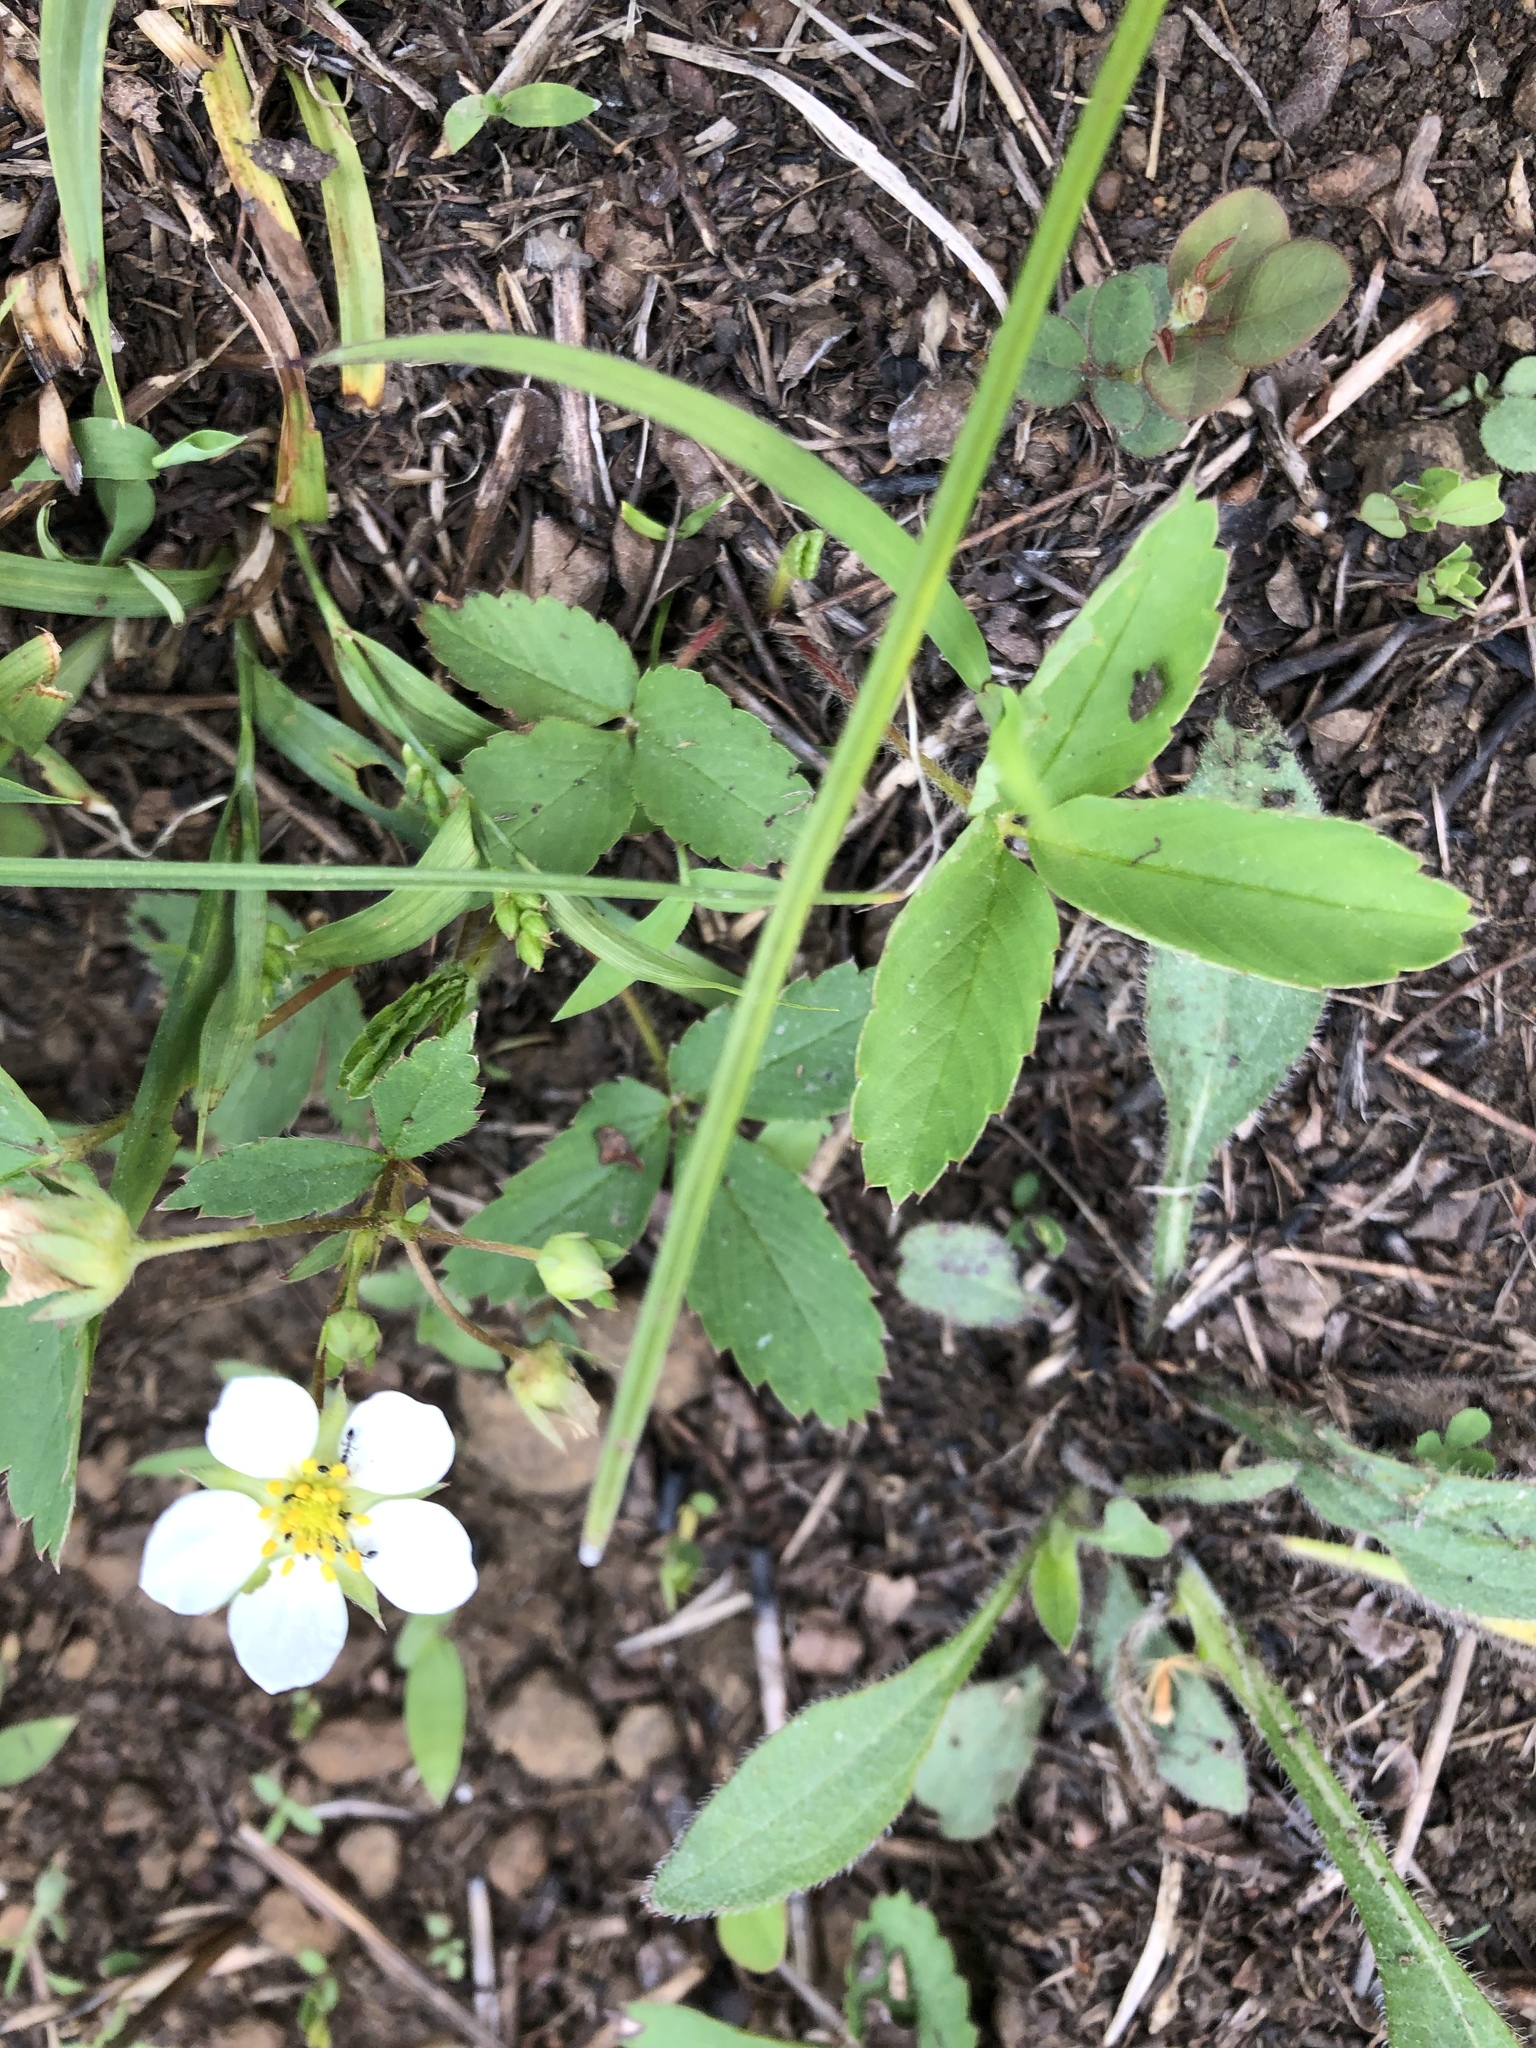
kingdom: Plantae
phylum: Tracheophyta
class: Magnoliopsida
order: Rosales
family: Rosaceae
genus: Fragaria
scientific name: Fragaria virginiana
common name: Thickleaved wild strawberry
